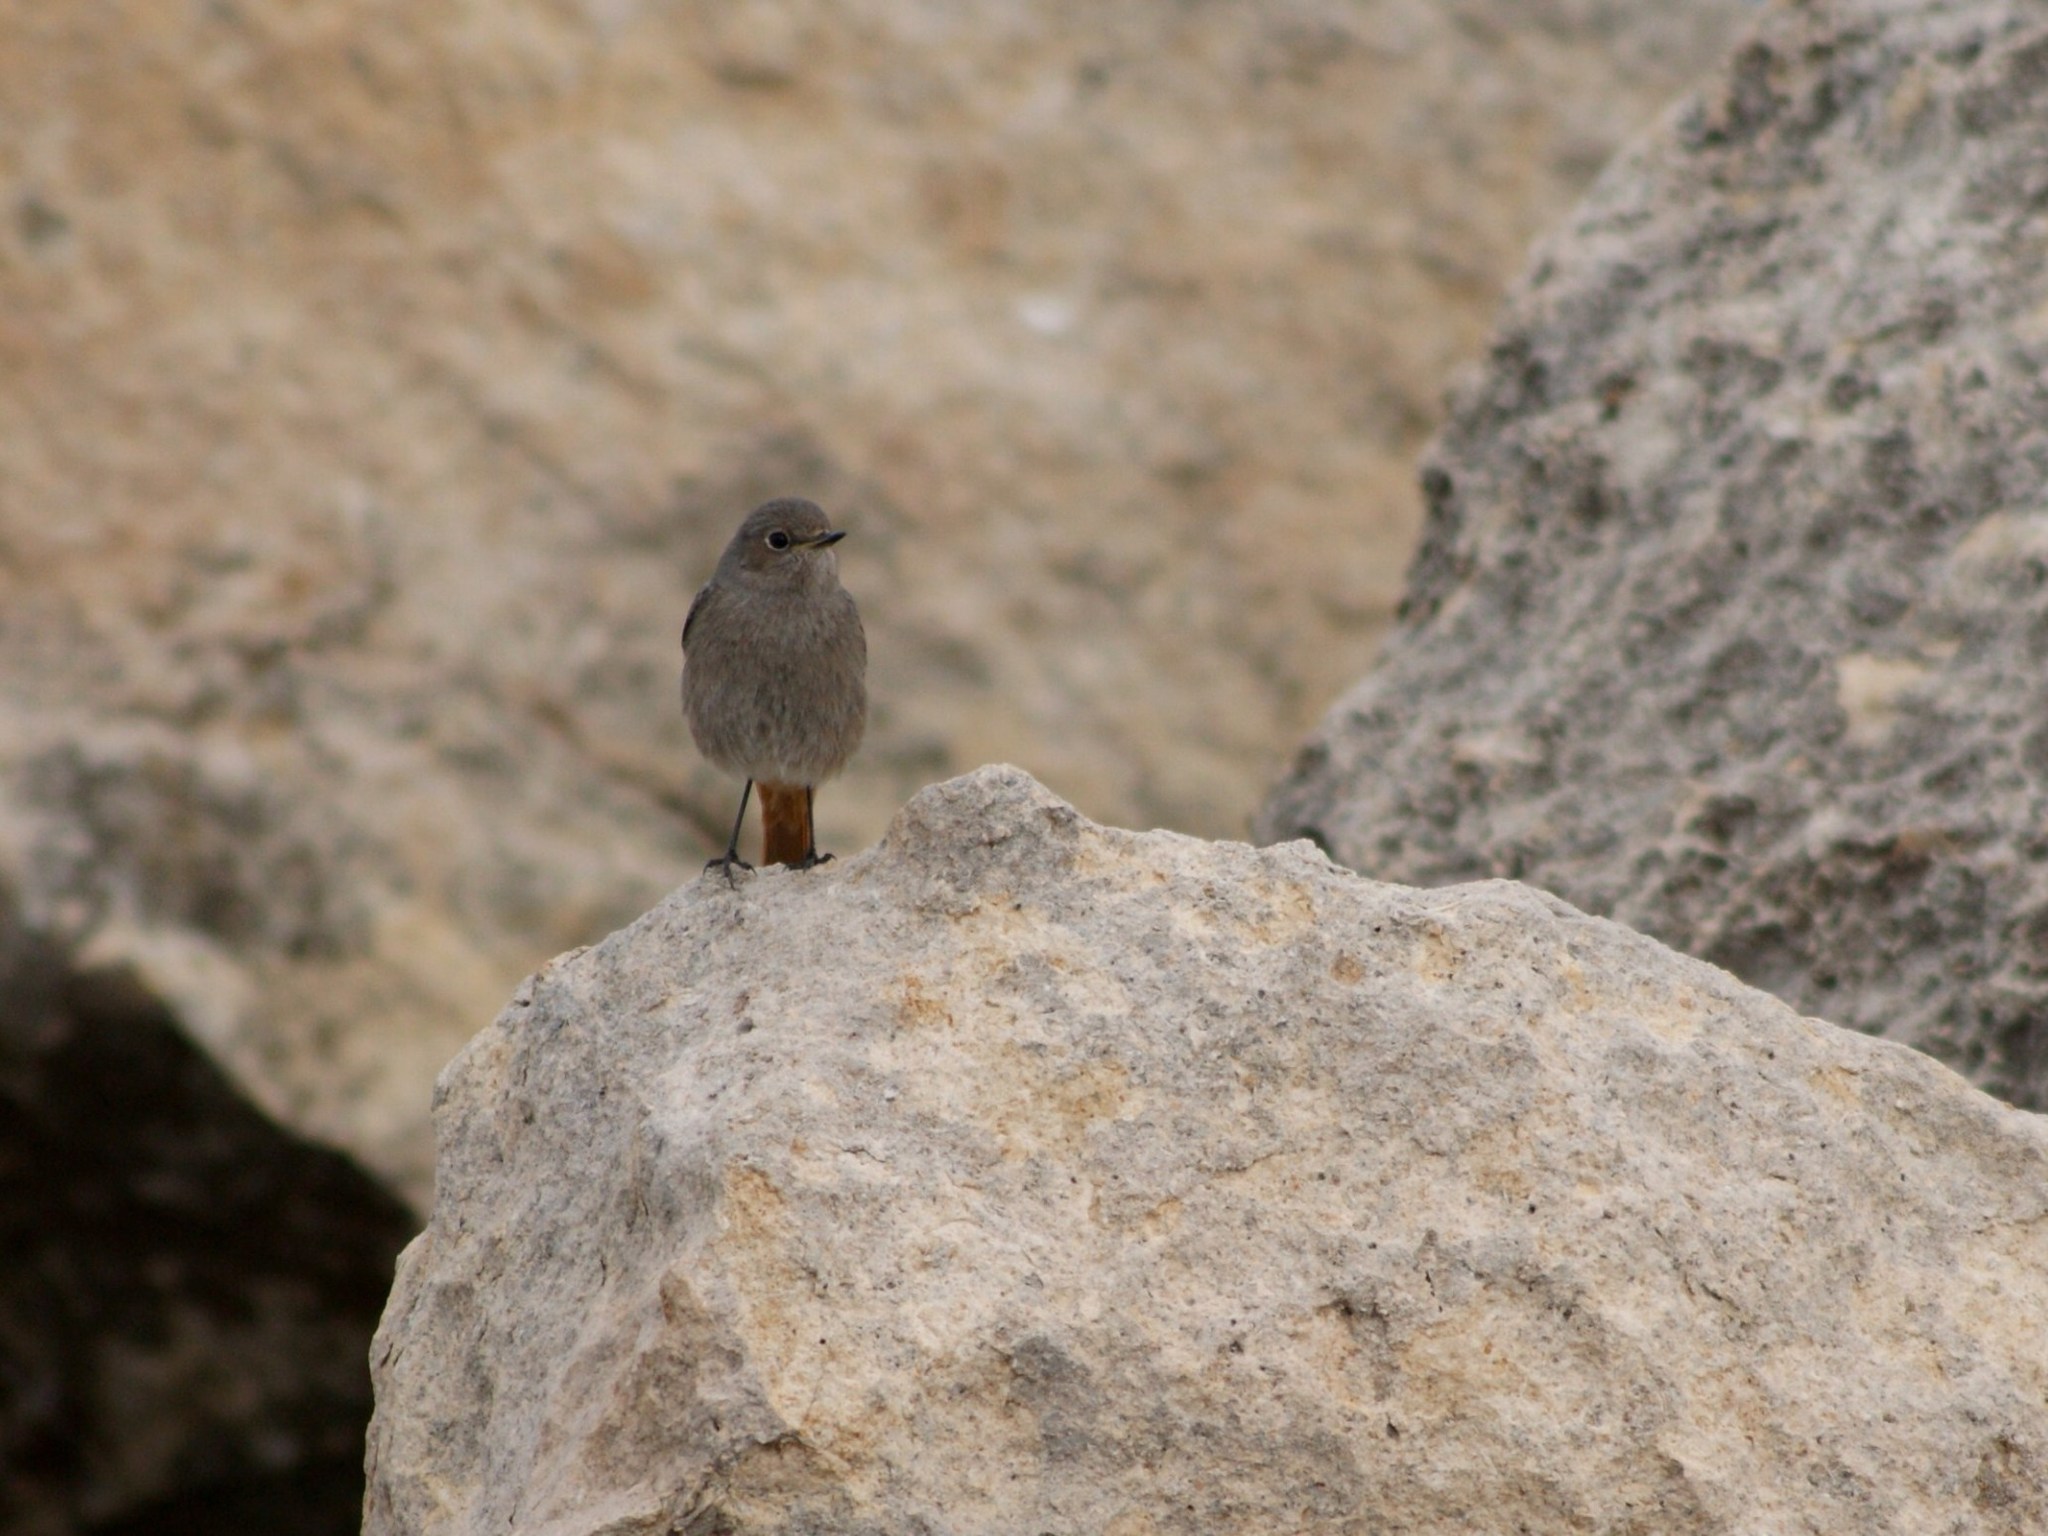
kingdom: Animalia
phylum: Chordata
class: Aves
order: Passeriformes
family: Muscicapidae
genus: Phoenicurus
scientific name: Phoenicurus ochruros
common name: Black redstart
